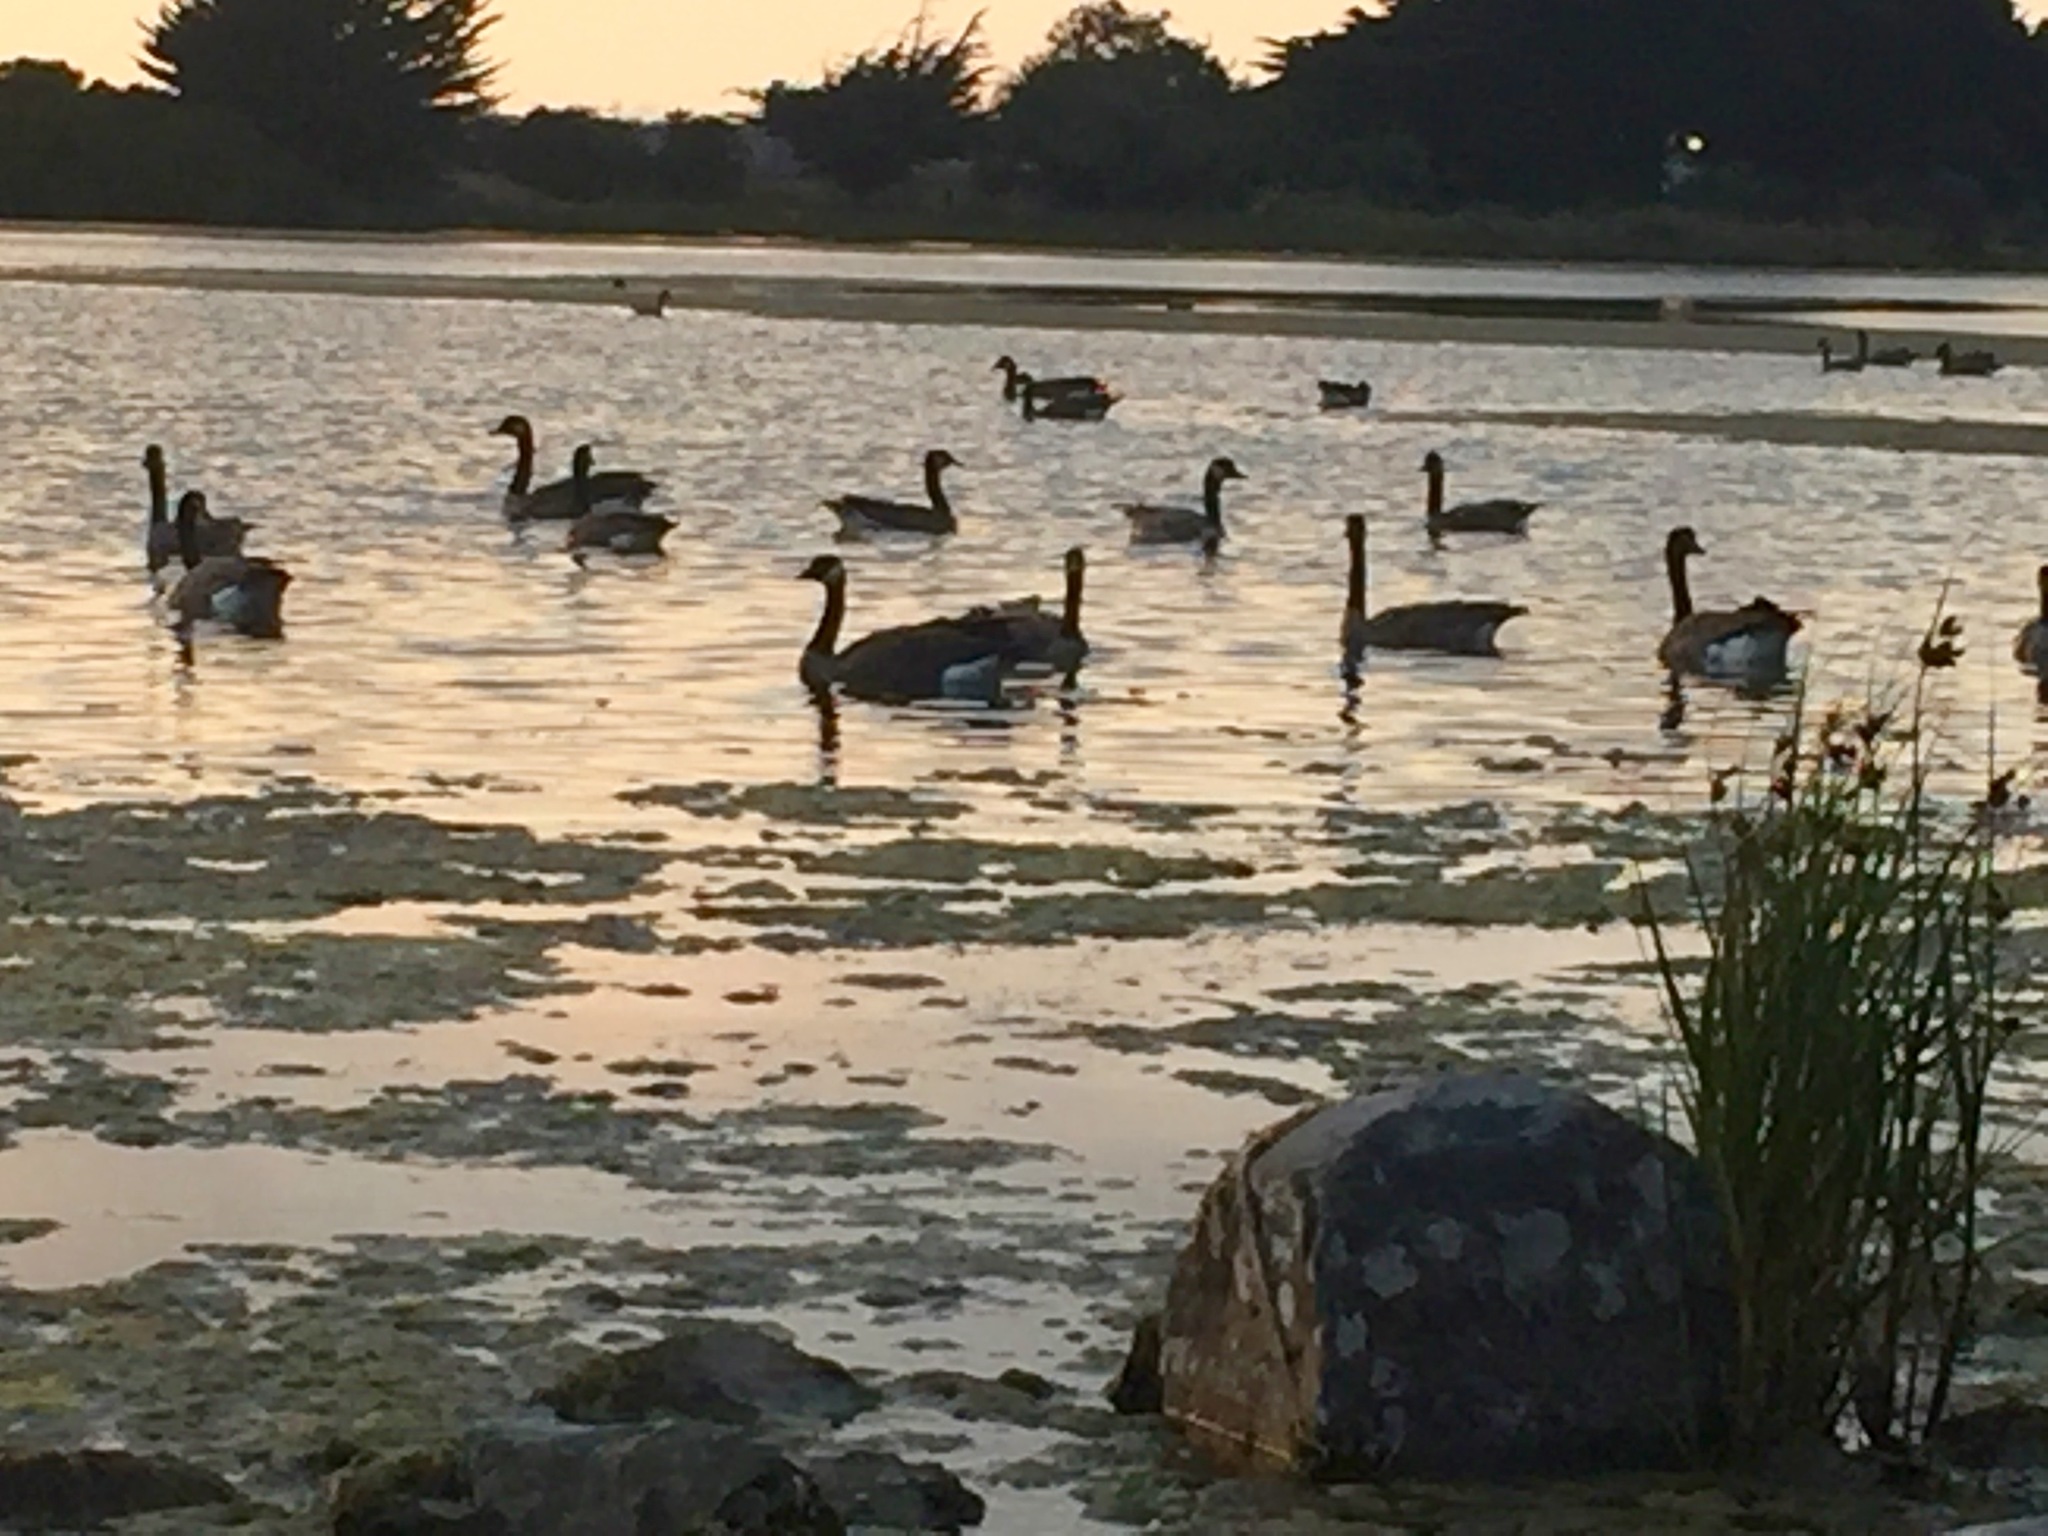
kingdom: Animalia
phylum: Chordata
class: Aves
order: Anseriformes
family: Anatidae
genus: Branta
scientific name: Branta canadensis
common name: Canada goose
